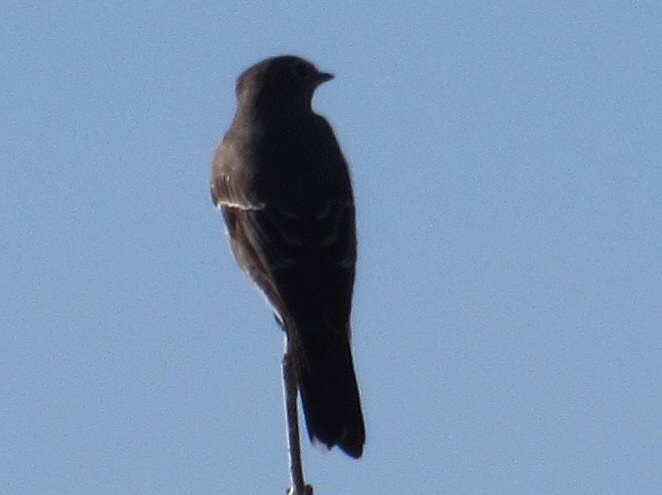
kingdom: Animalia
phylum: Chordata
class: Aves
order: Passeriformes
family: Turdidae
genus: Myadestes
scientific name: Myadestes townsendi
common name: Townsend's solitaire
